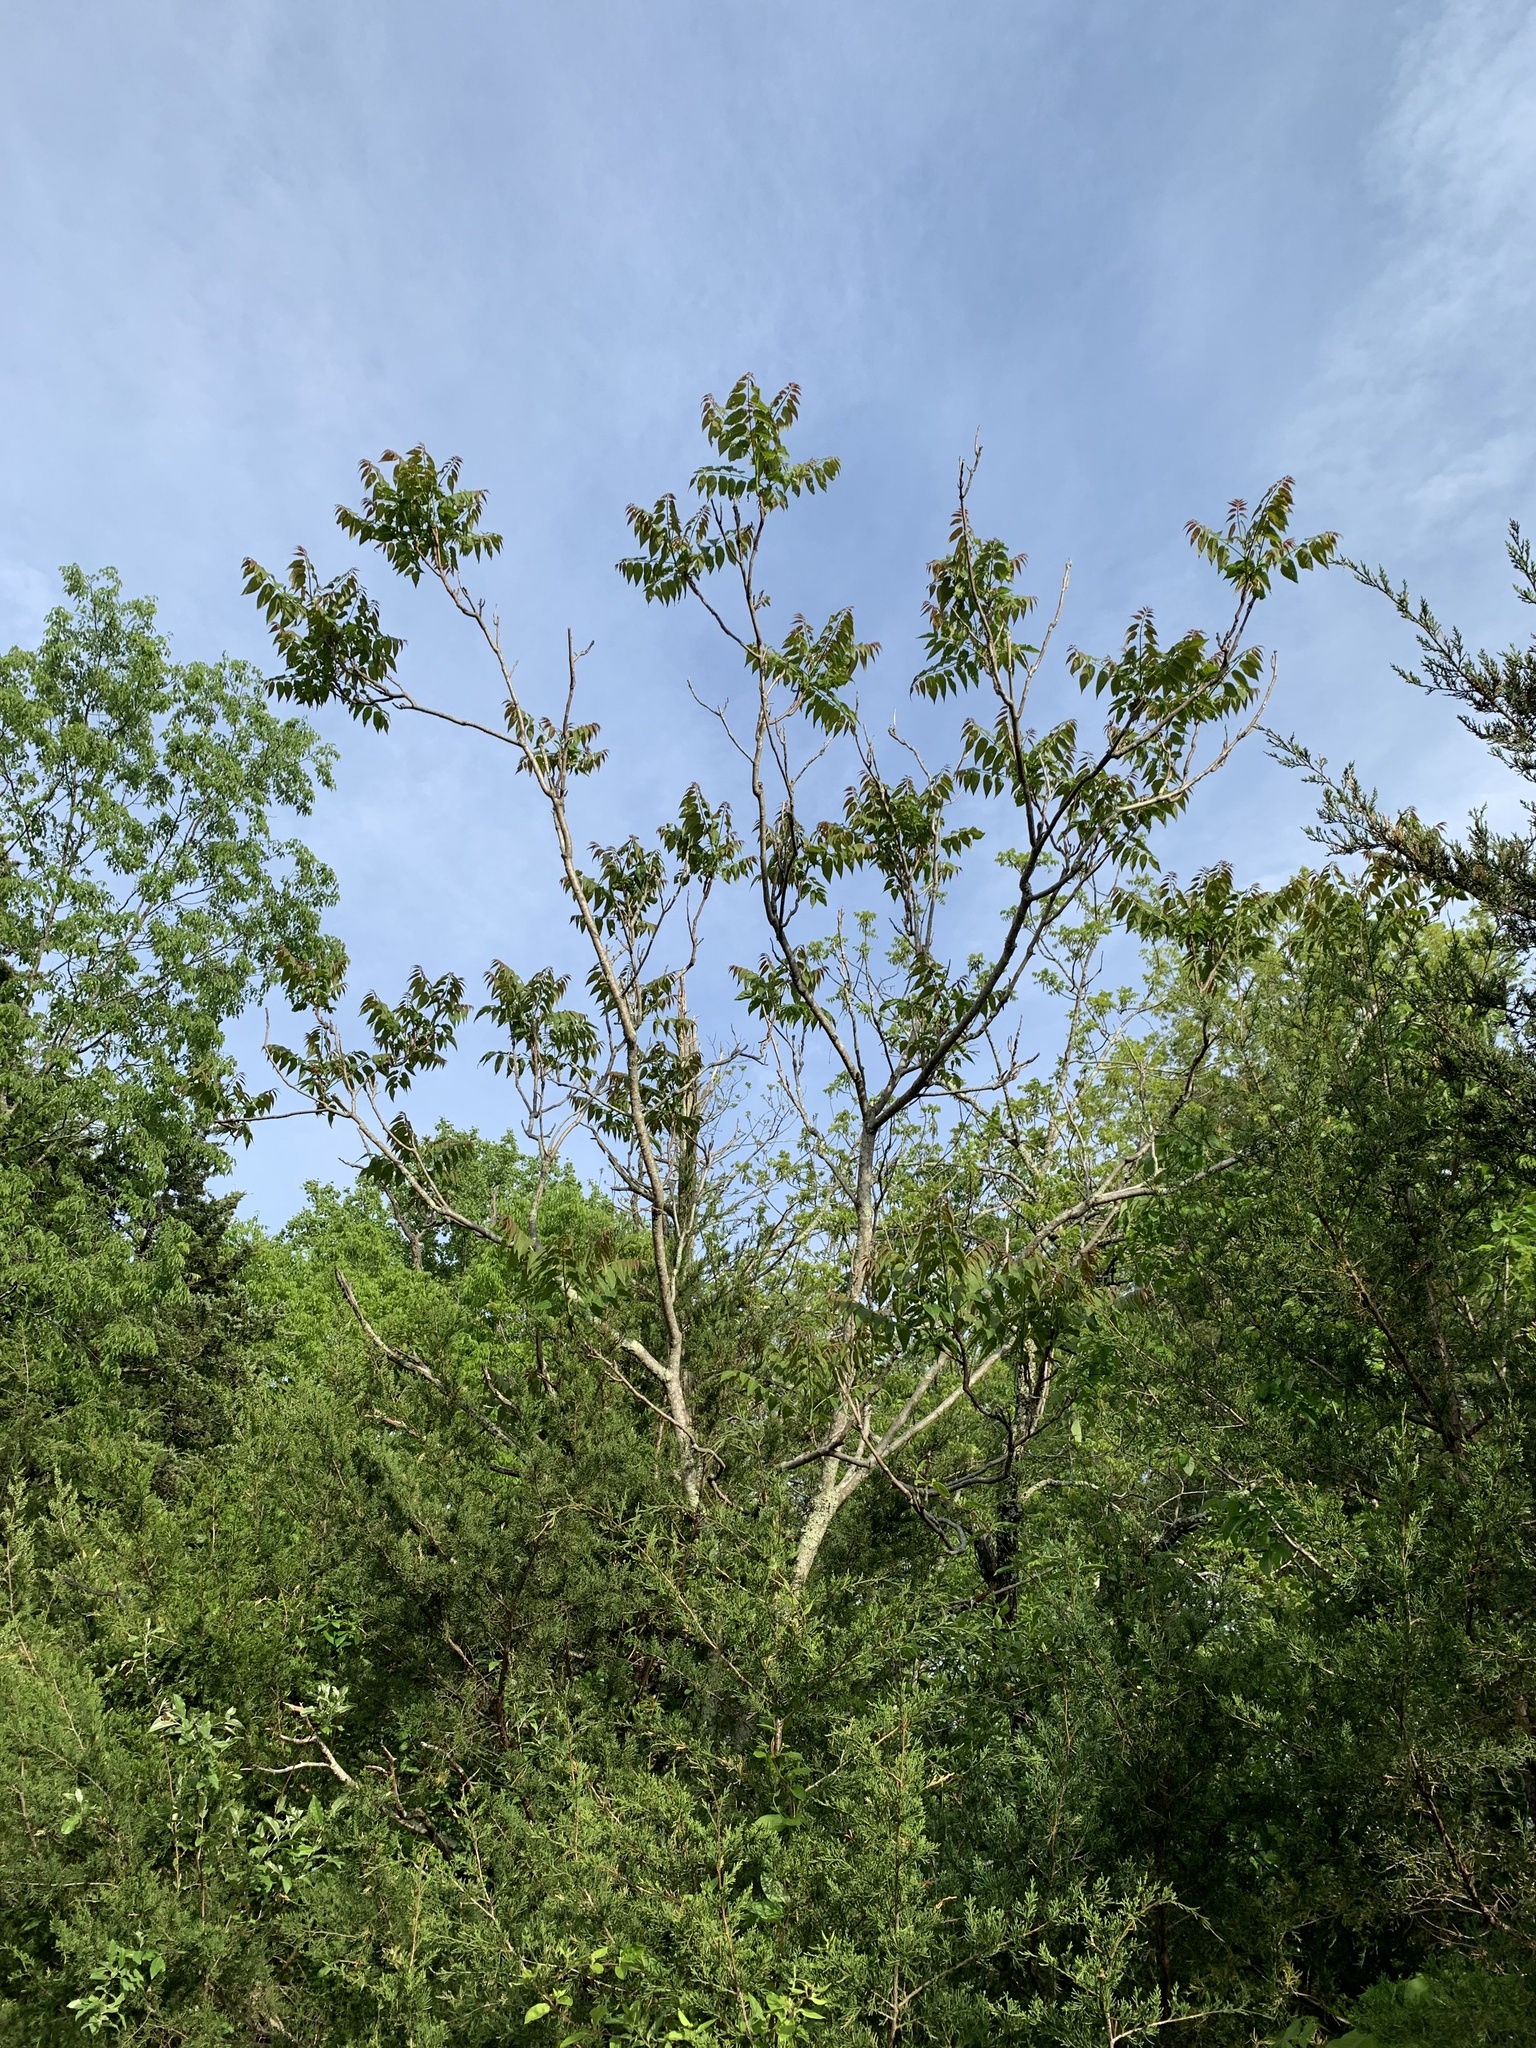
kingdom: Plantae
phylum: Tracheophyta
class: Magnoliopsida
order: Sapindales
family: Simaroubaceae
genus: Ailanthus
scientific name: Ailanthus altissima
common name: Tree-of-heaven
